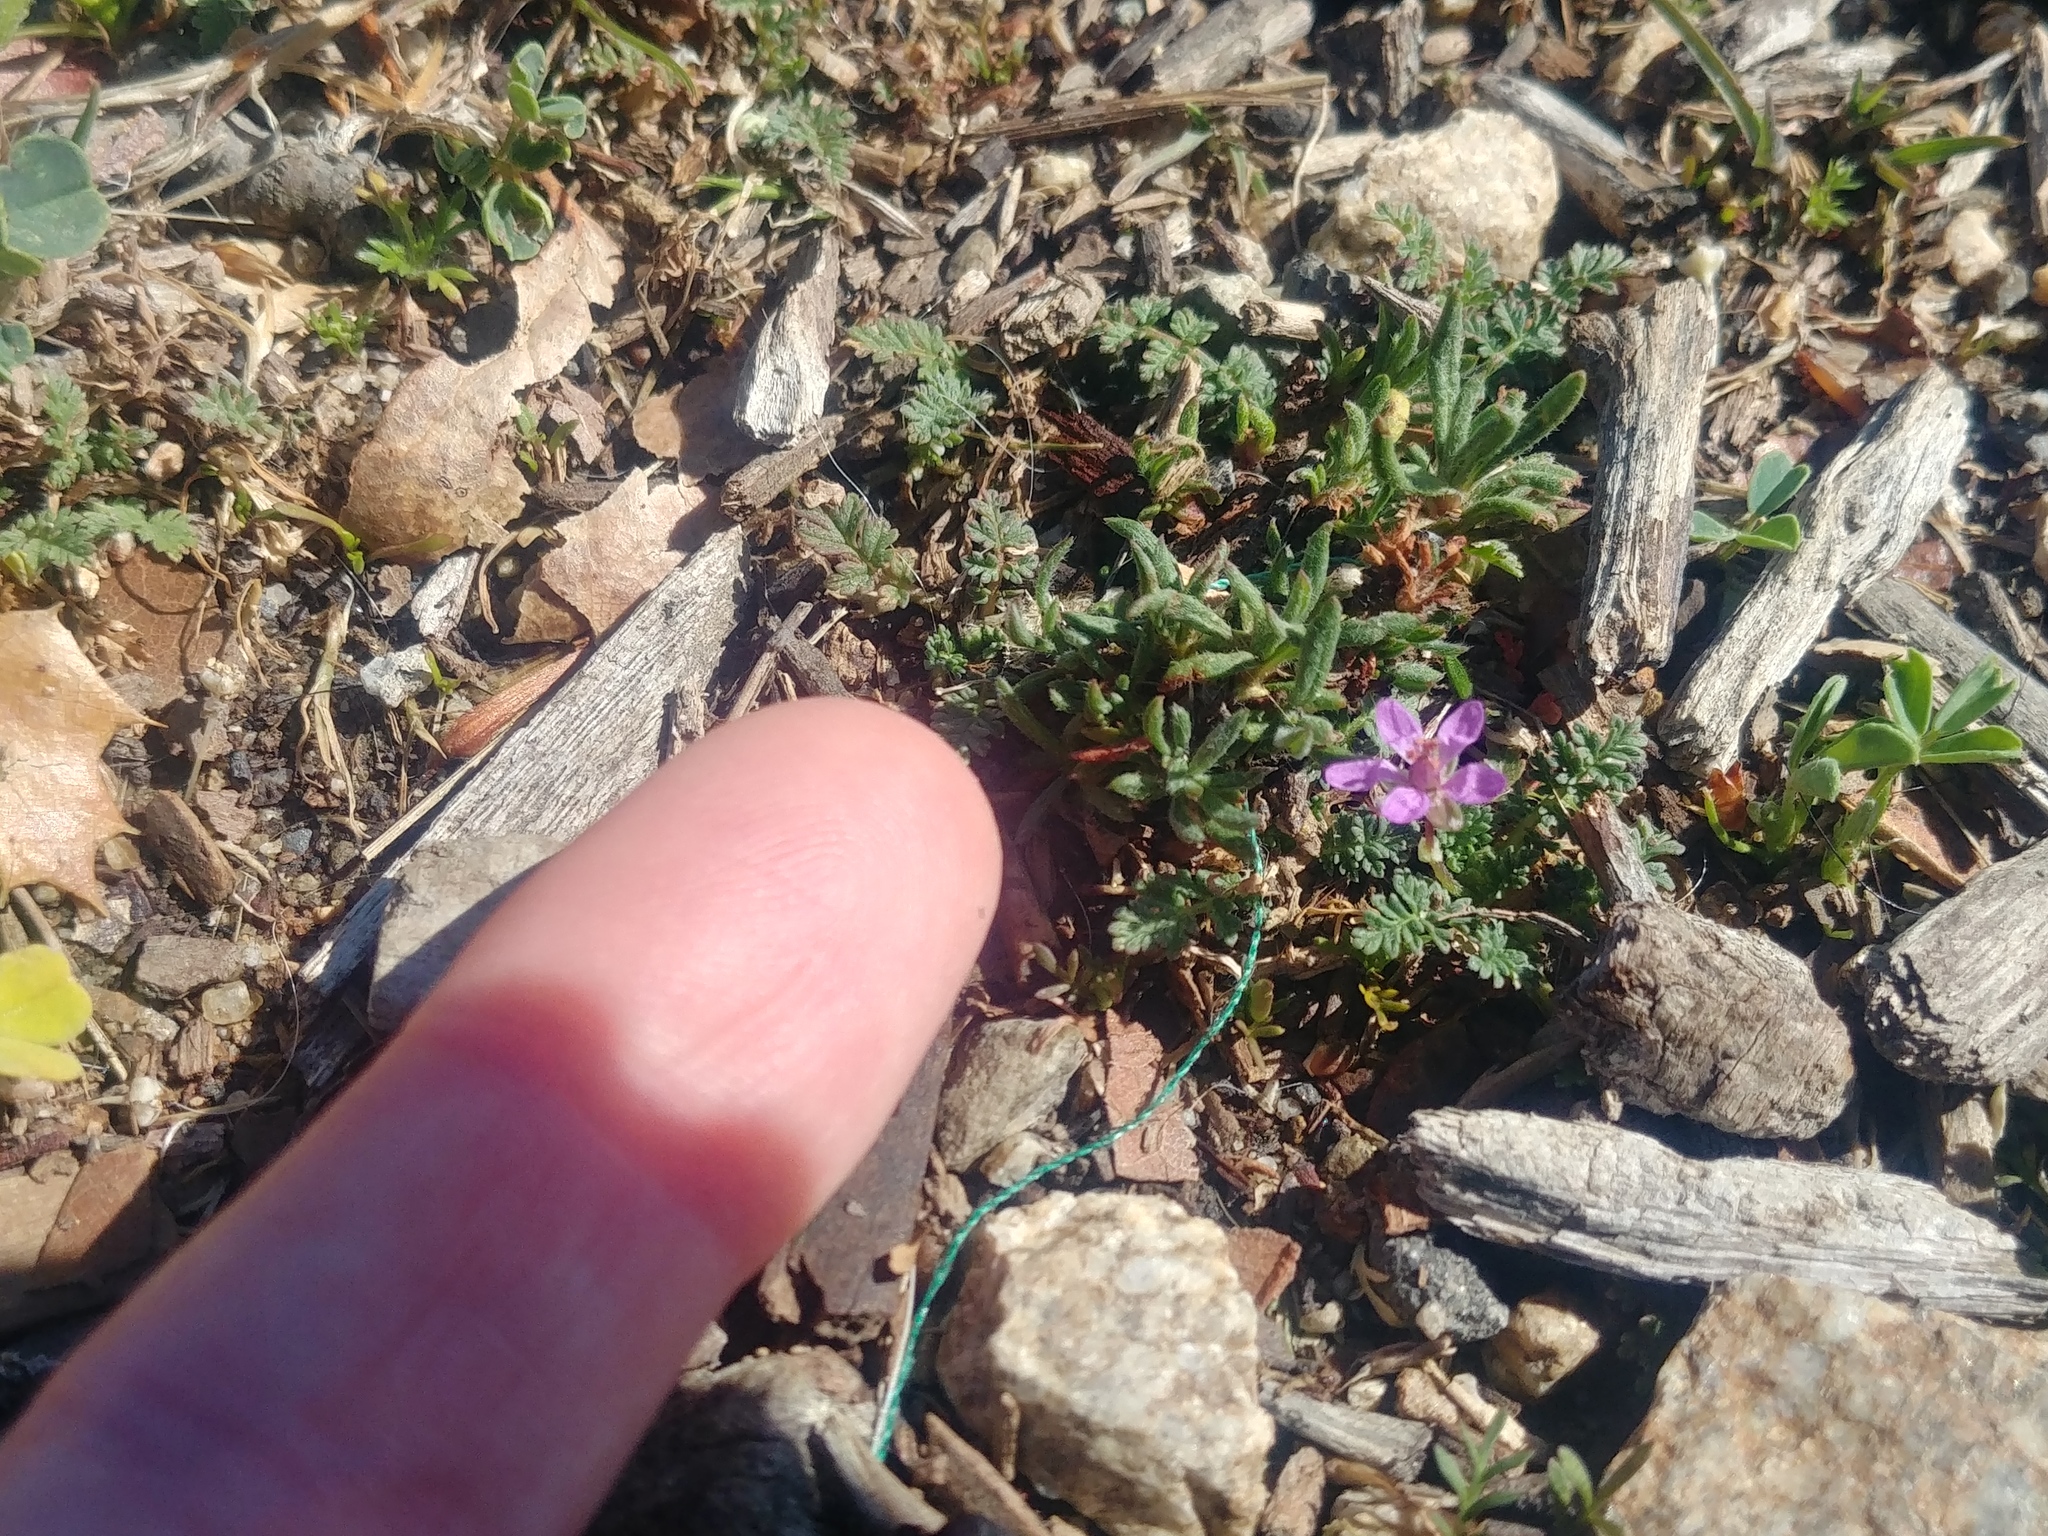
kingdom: Plantae
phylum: Tracheophyta
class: Magnoliopsida
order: Geraniales
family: Geraniaceae
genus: Erodium
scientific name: Erodium cicutarium
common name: Common stork's-bill
